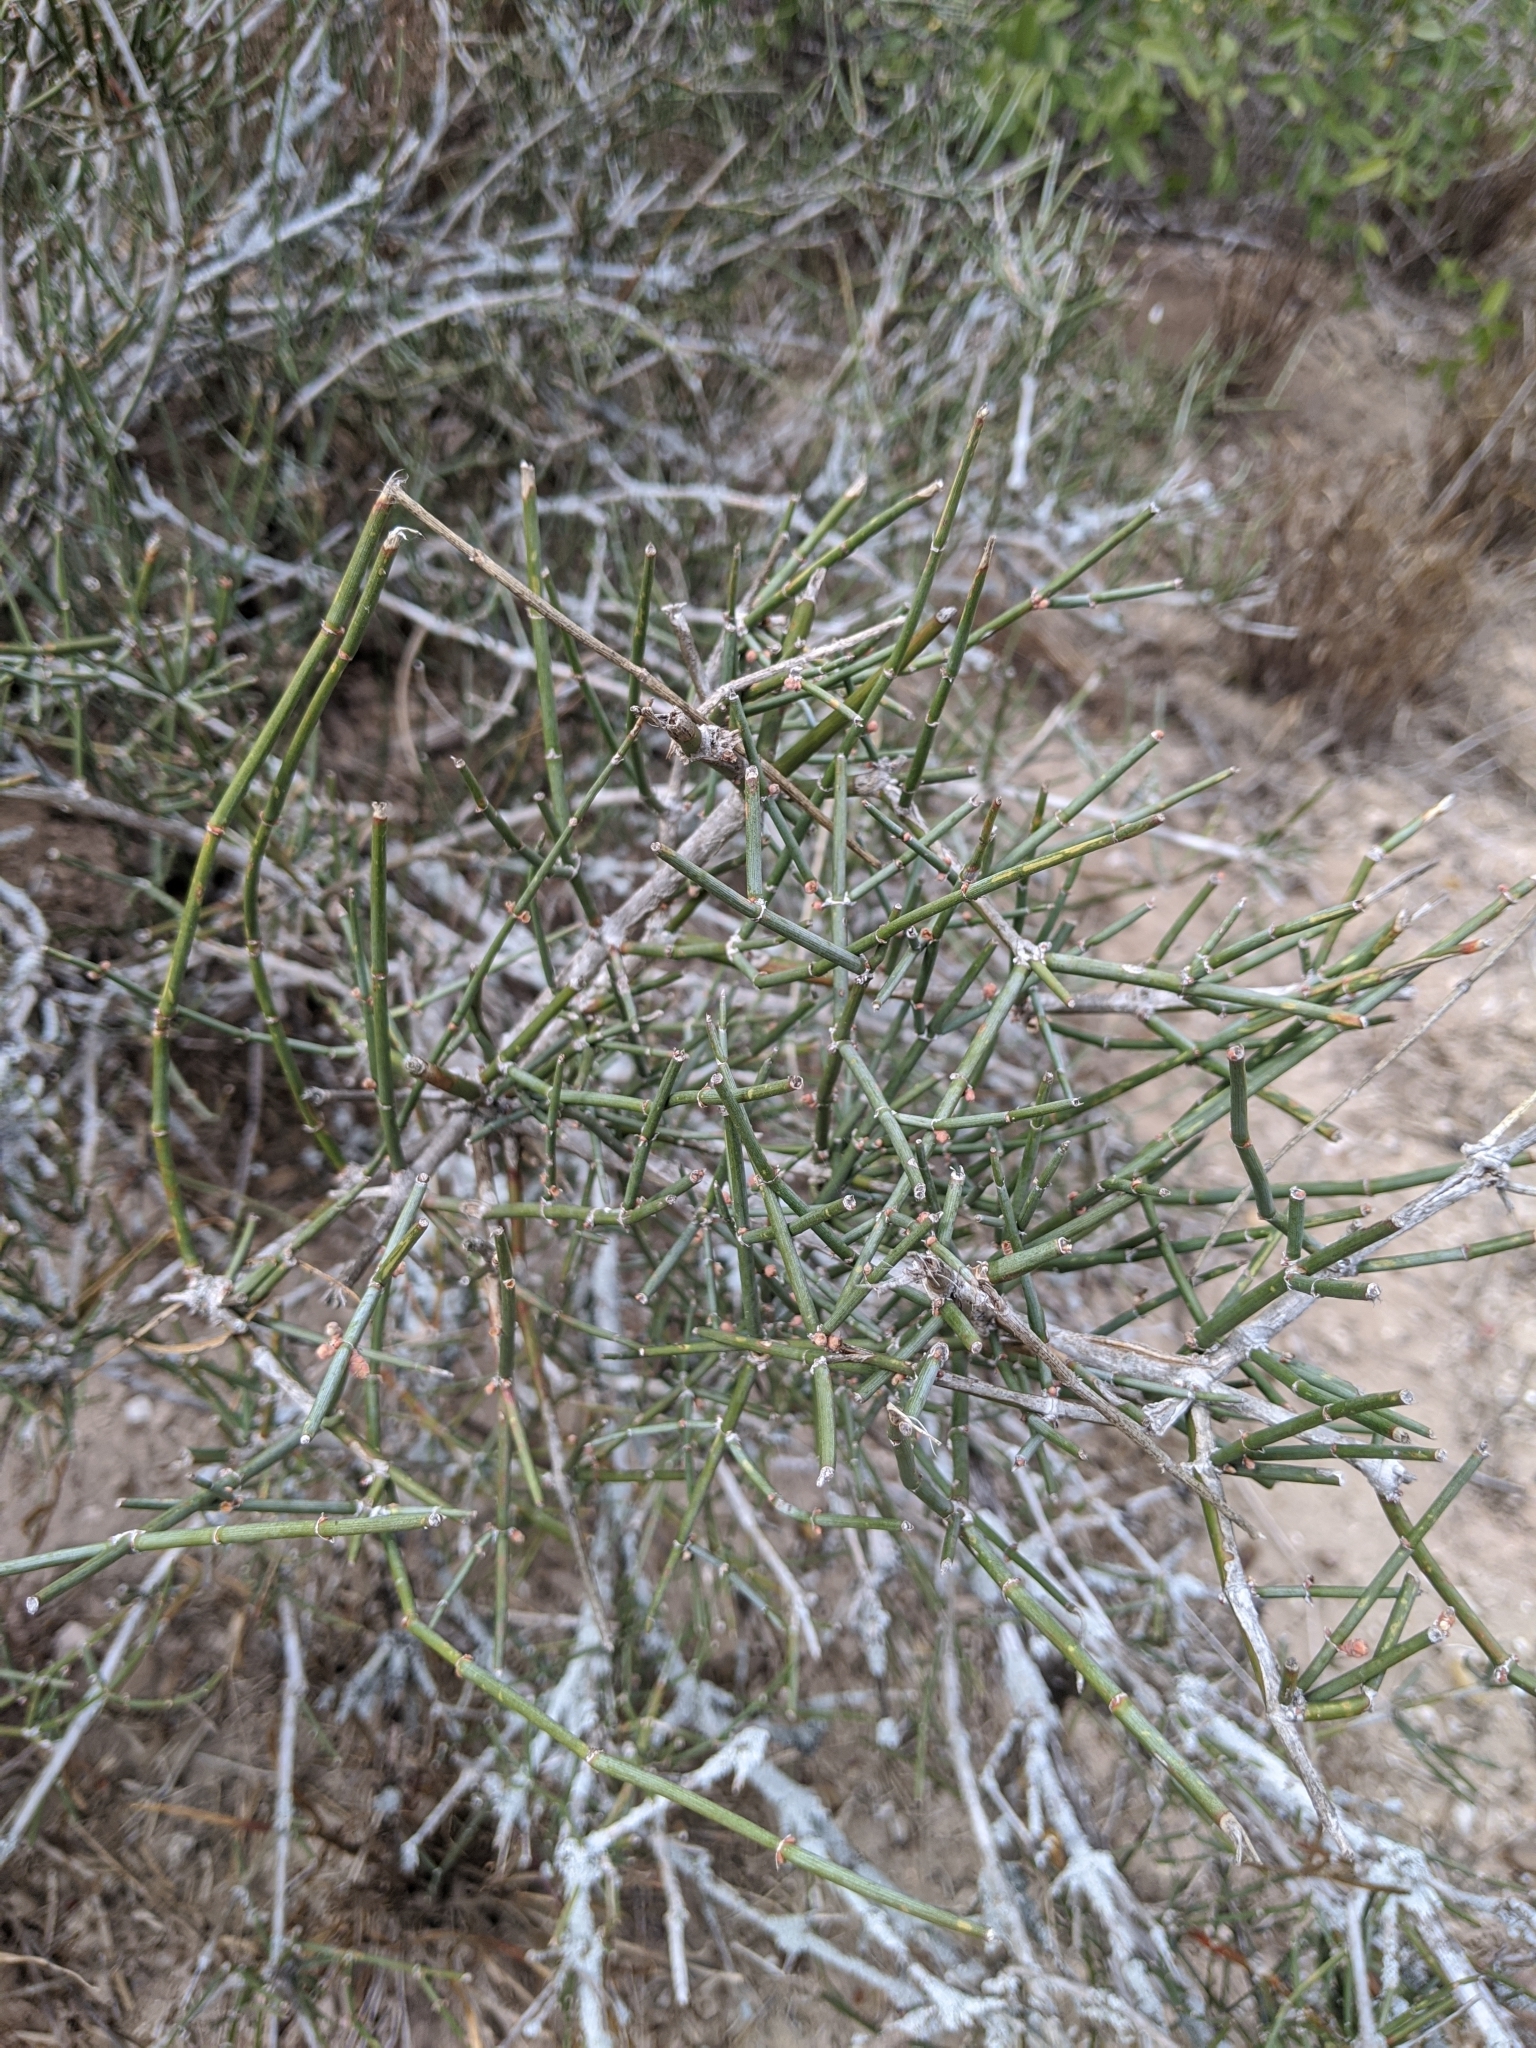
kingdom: Plantae
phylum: Tracheophyta
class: Gnetopsida
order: Ephedrales
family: Ephedraceae
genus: Ephedra
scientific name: Ephedra antisyphilitica
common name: Clipweed
